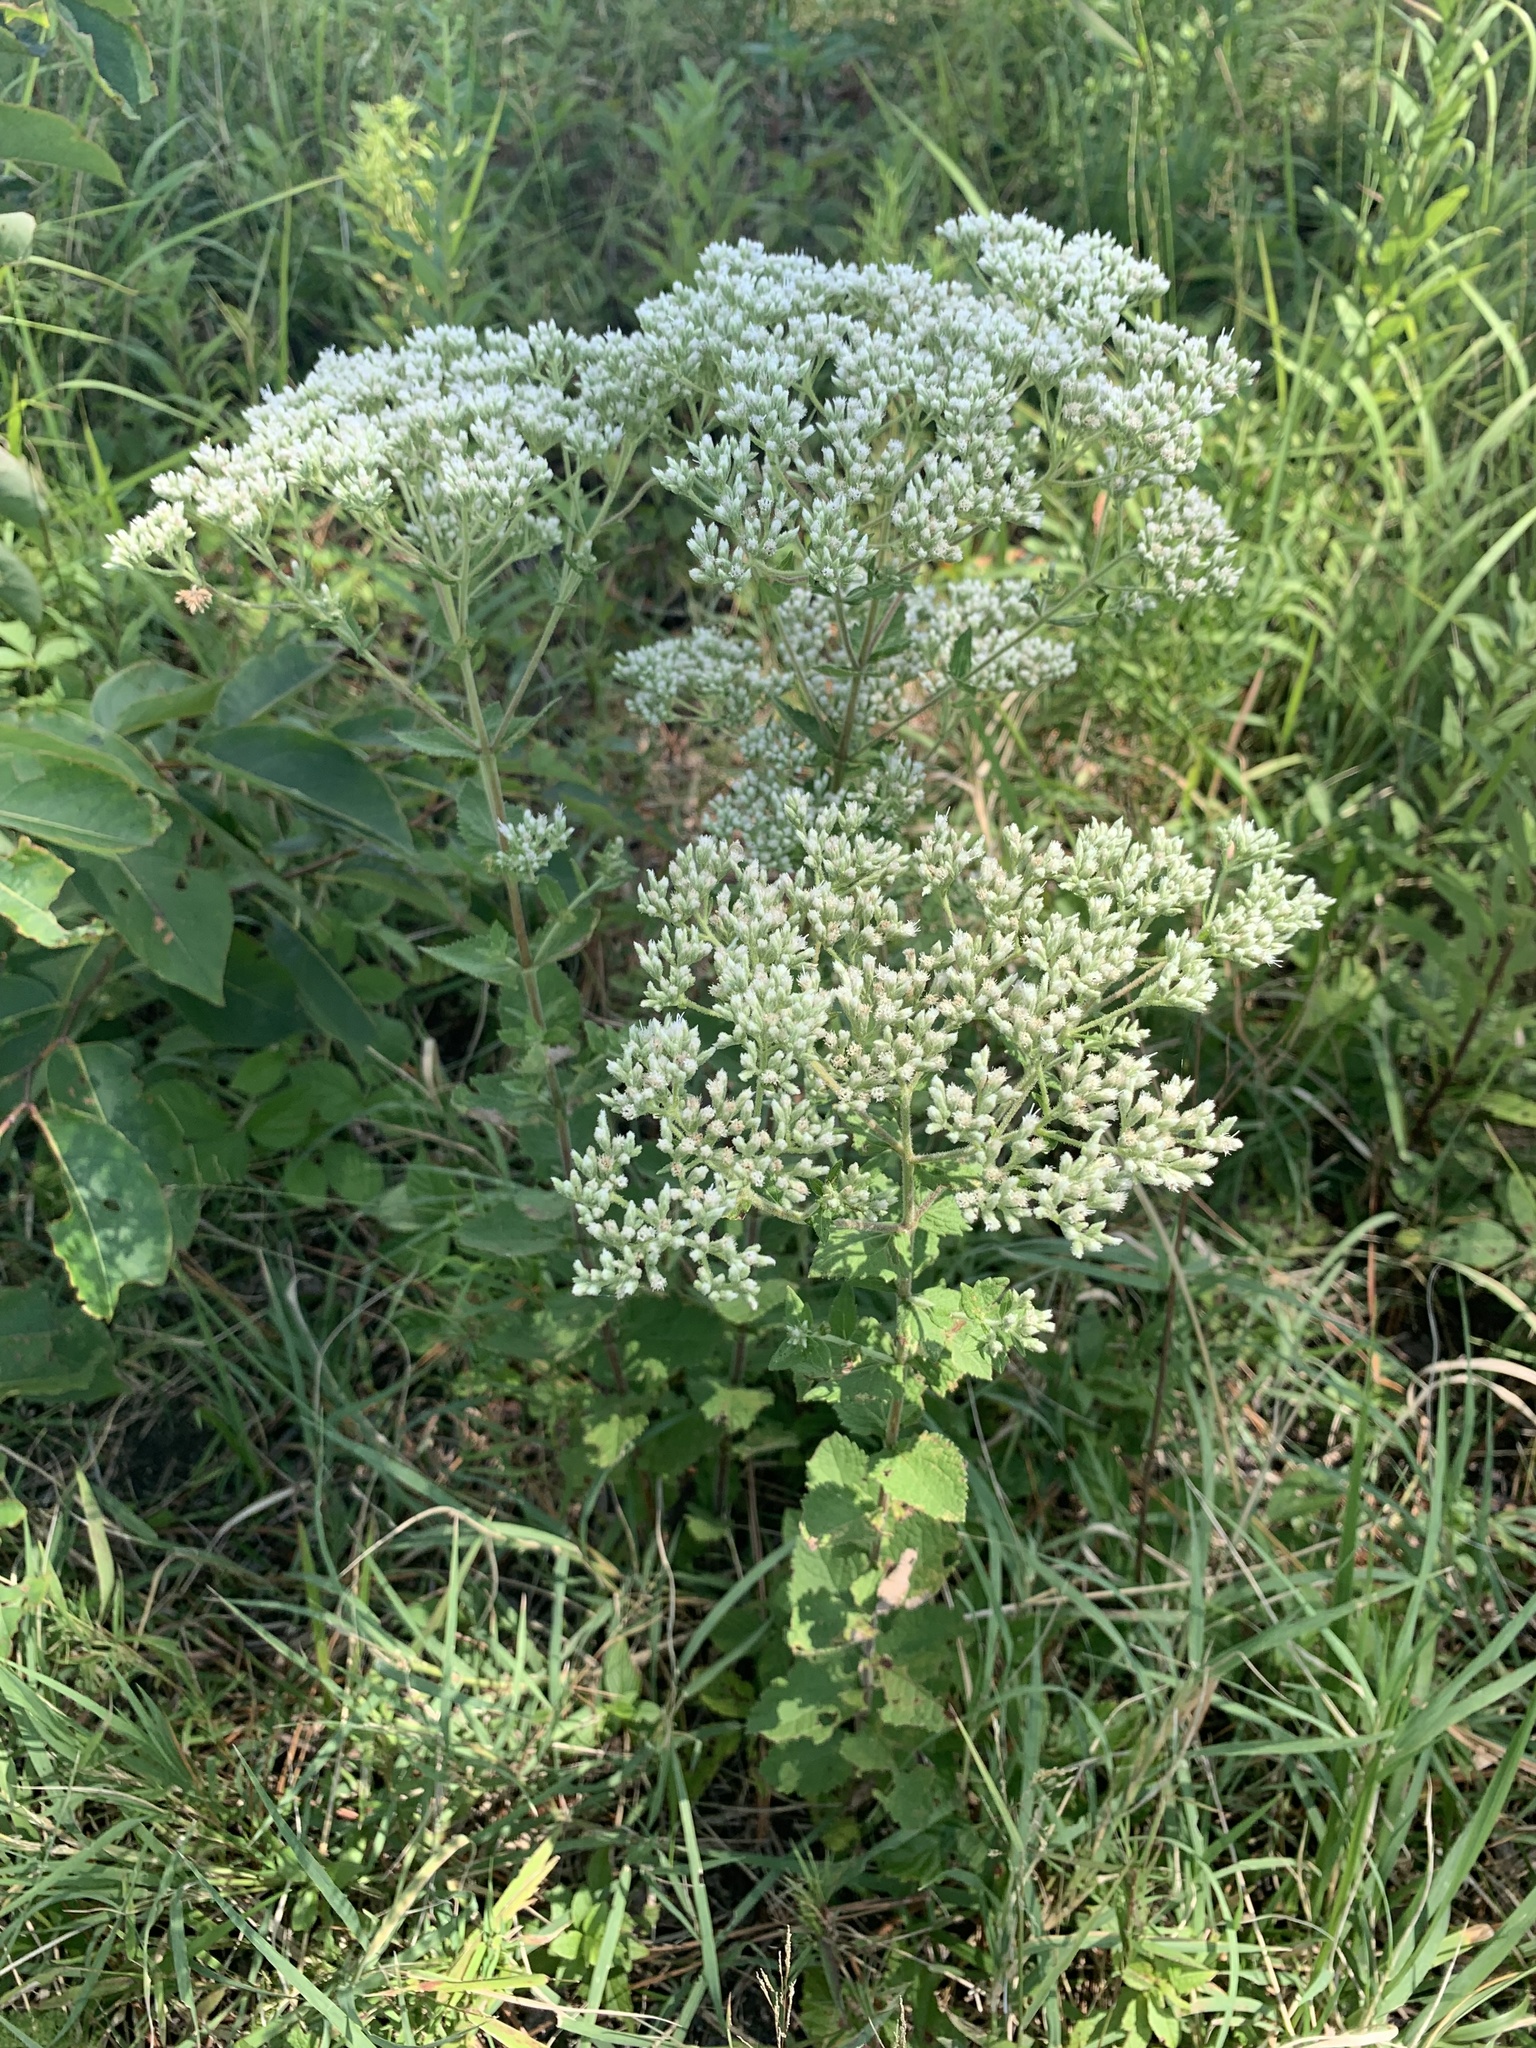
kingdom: Plantae
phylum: Tracheophyta
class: Magnoliopsida
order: Asterales
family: Asteraceae
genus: Eupatorium
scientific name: Eupatorium rotundifolium
